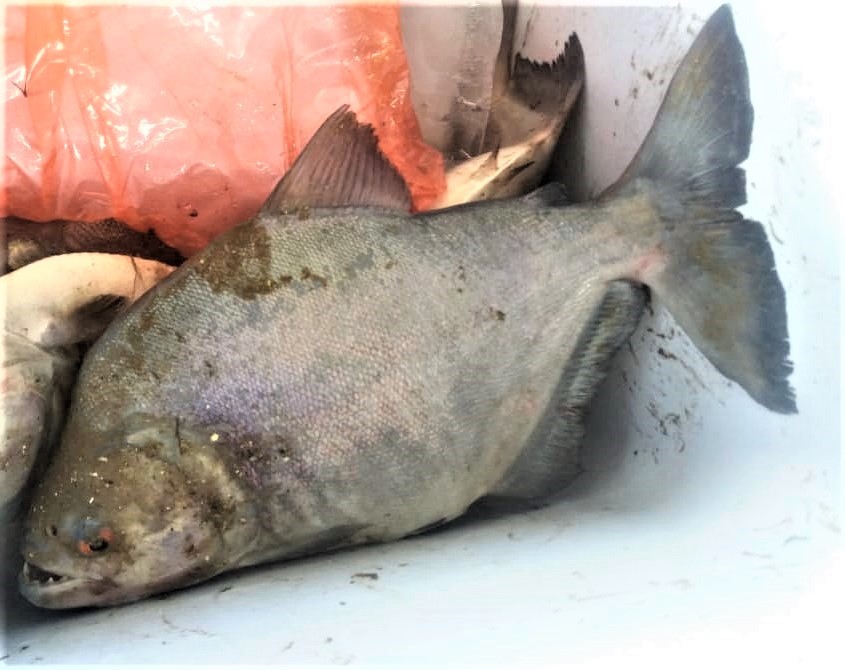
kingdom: Animalia
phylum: Chordata
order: Characiformes
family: Serrasalmidae
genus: Serrasalmus
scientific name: Serrasalmus rhombeus
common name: Redeye piranha
